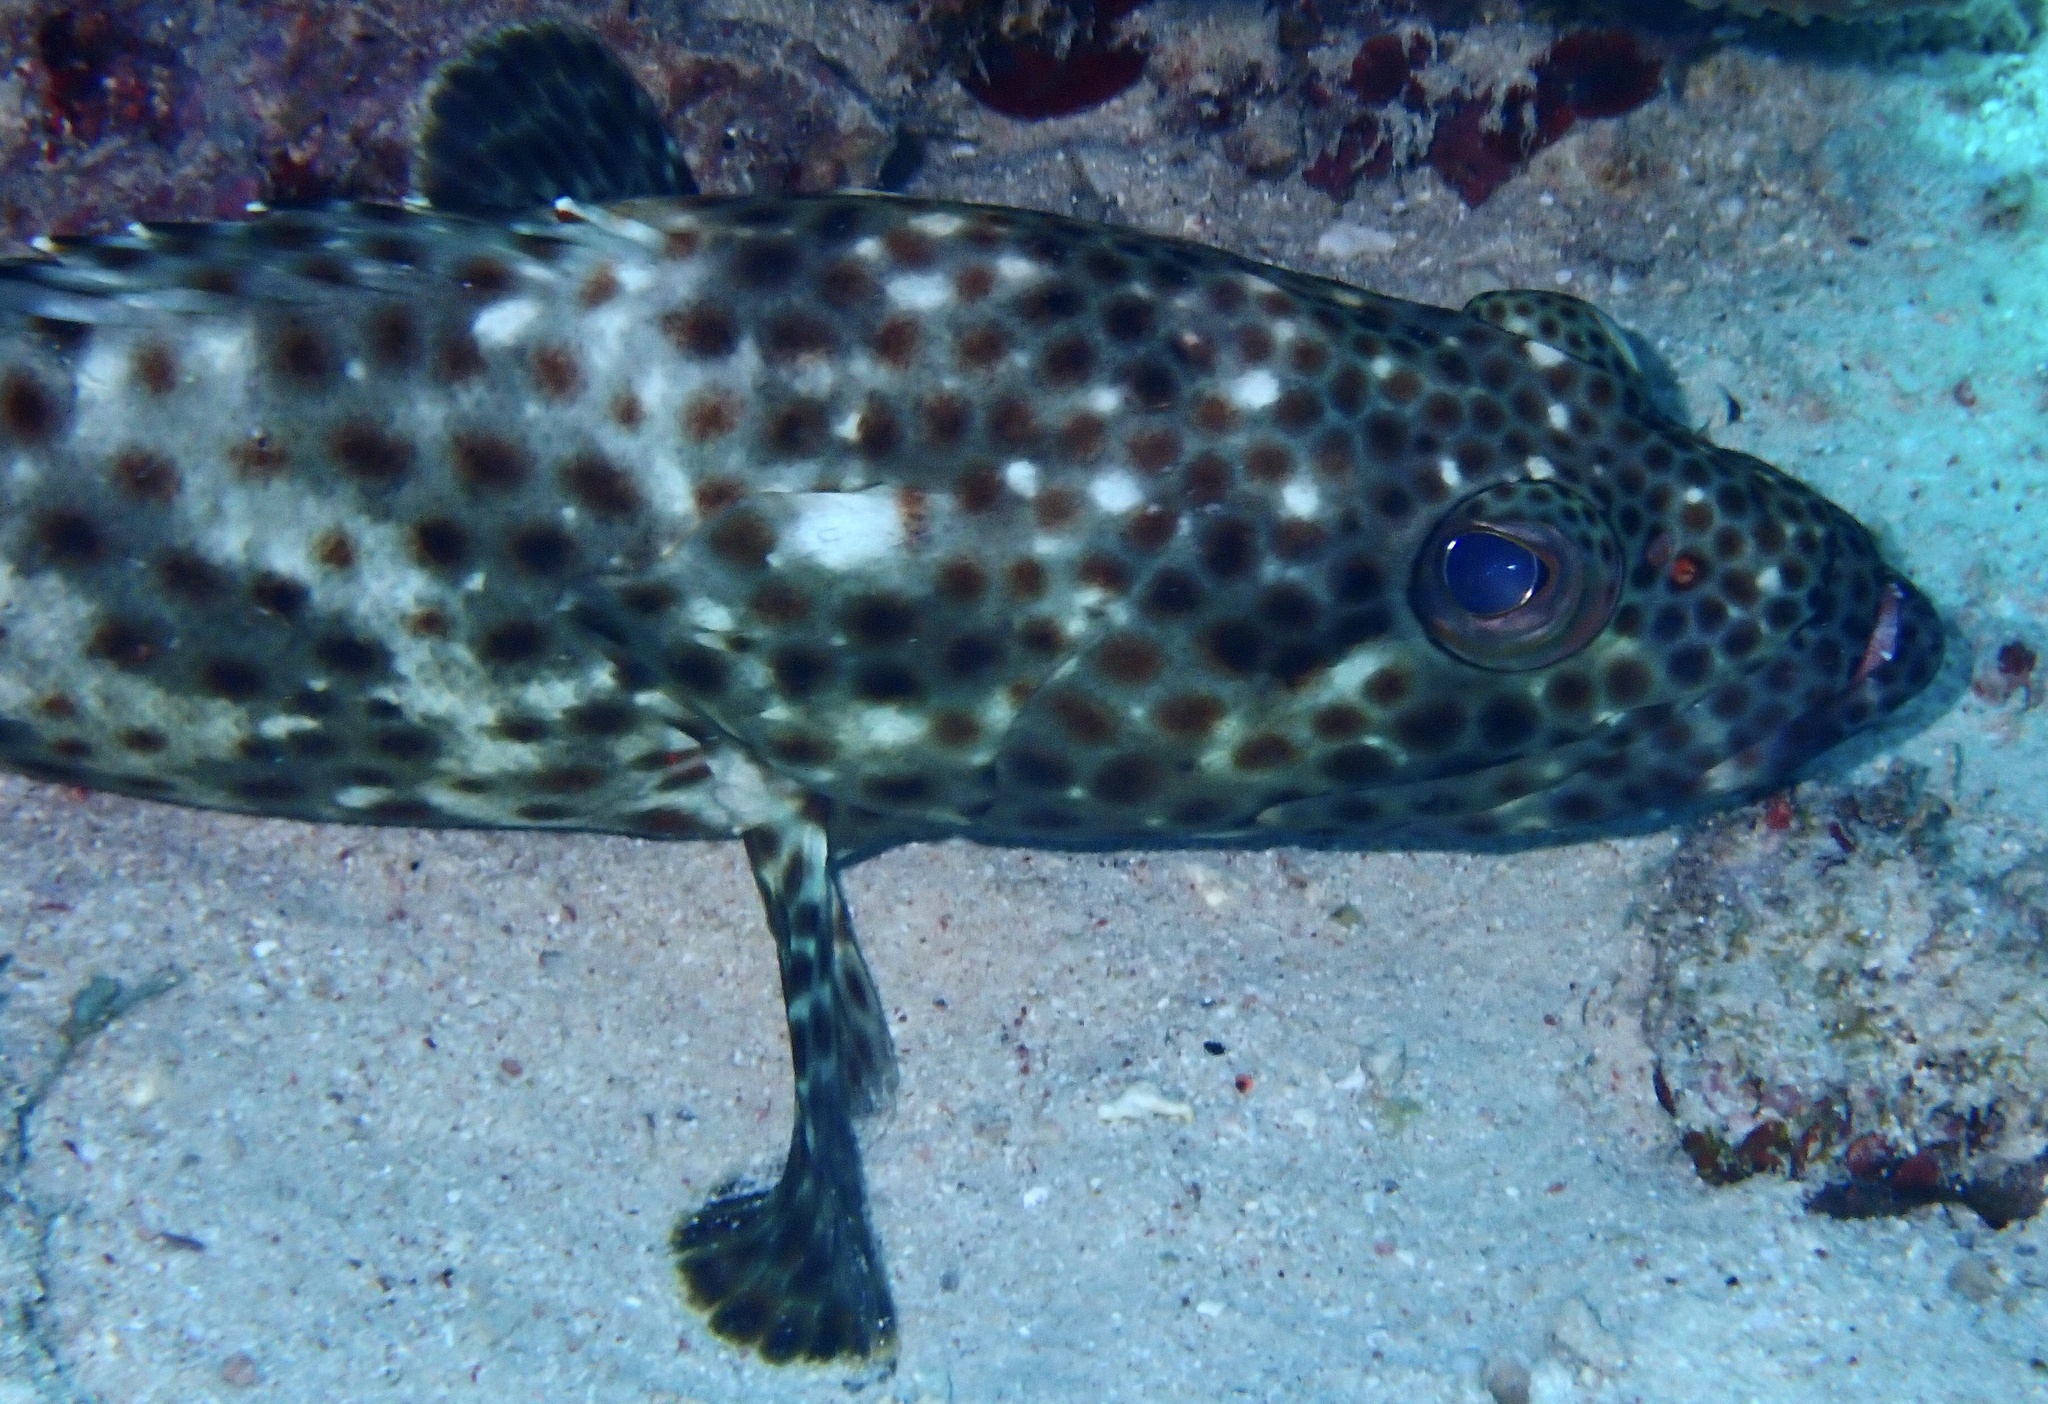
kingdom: Animalia
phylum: Chordata
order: Perciformes
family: Serranidae
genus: Epinephelus
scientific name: Epinephelus tauvina
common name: Greasy grouper
